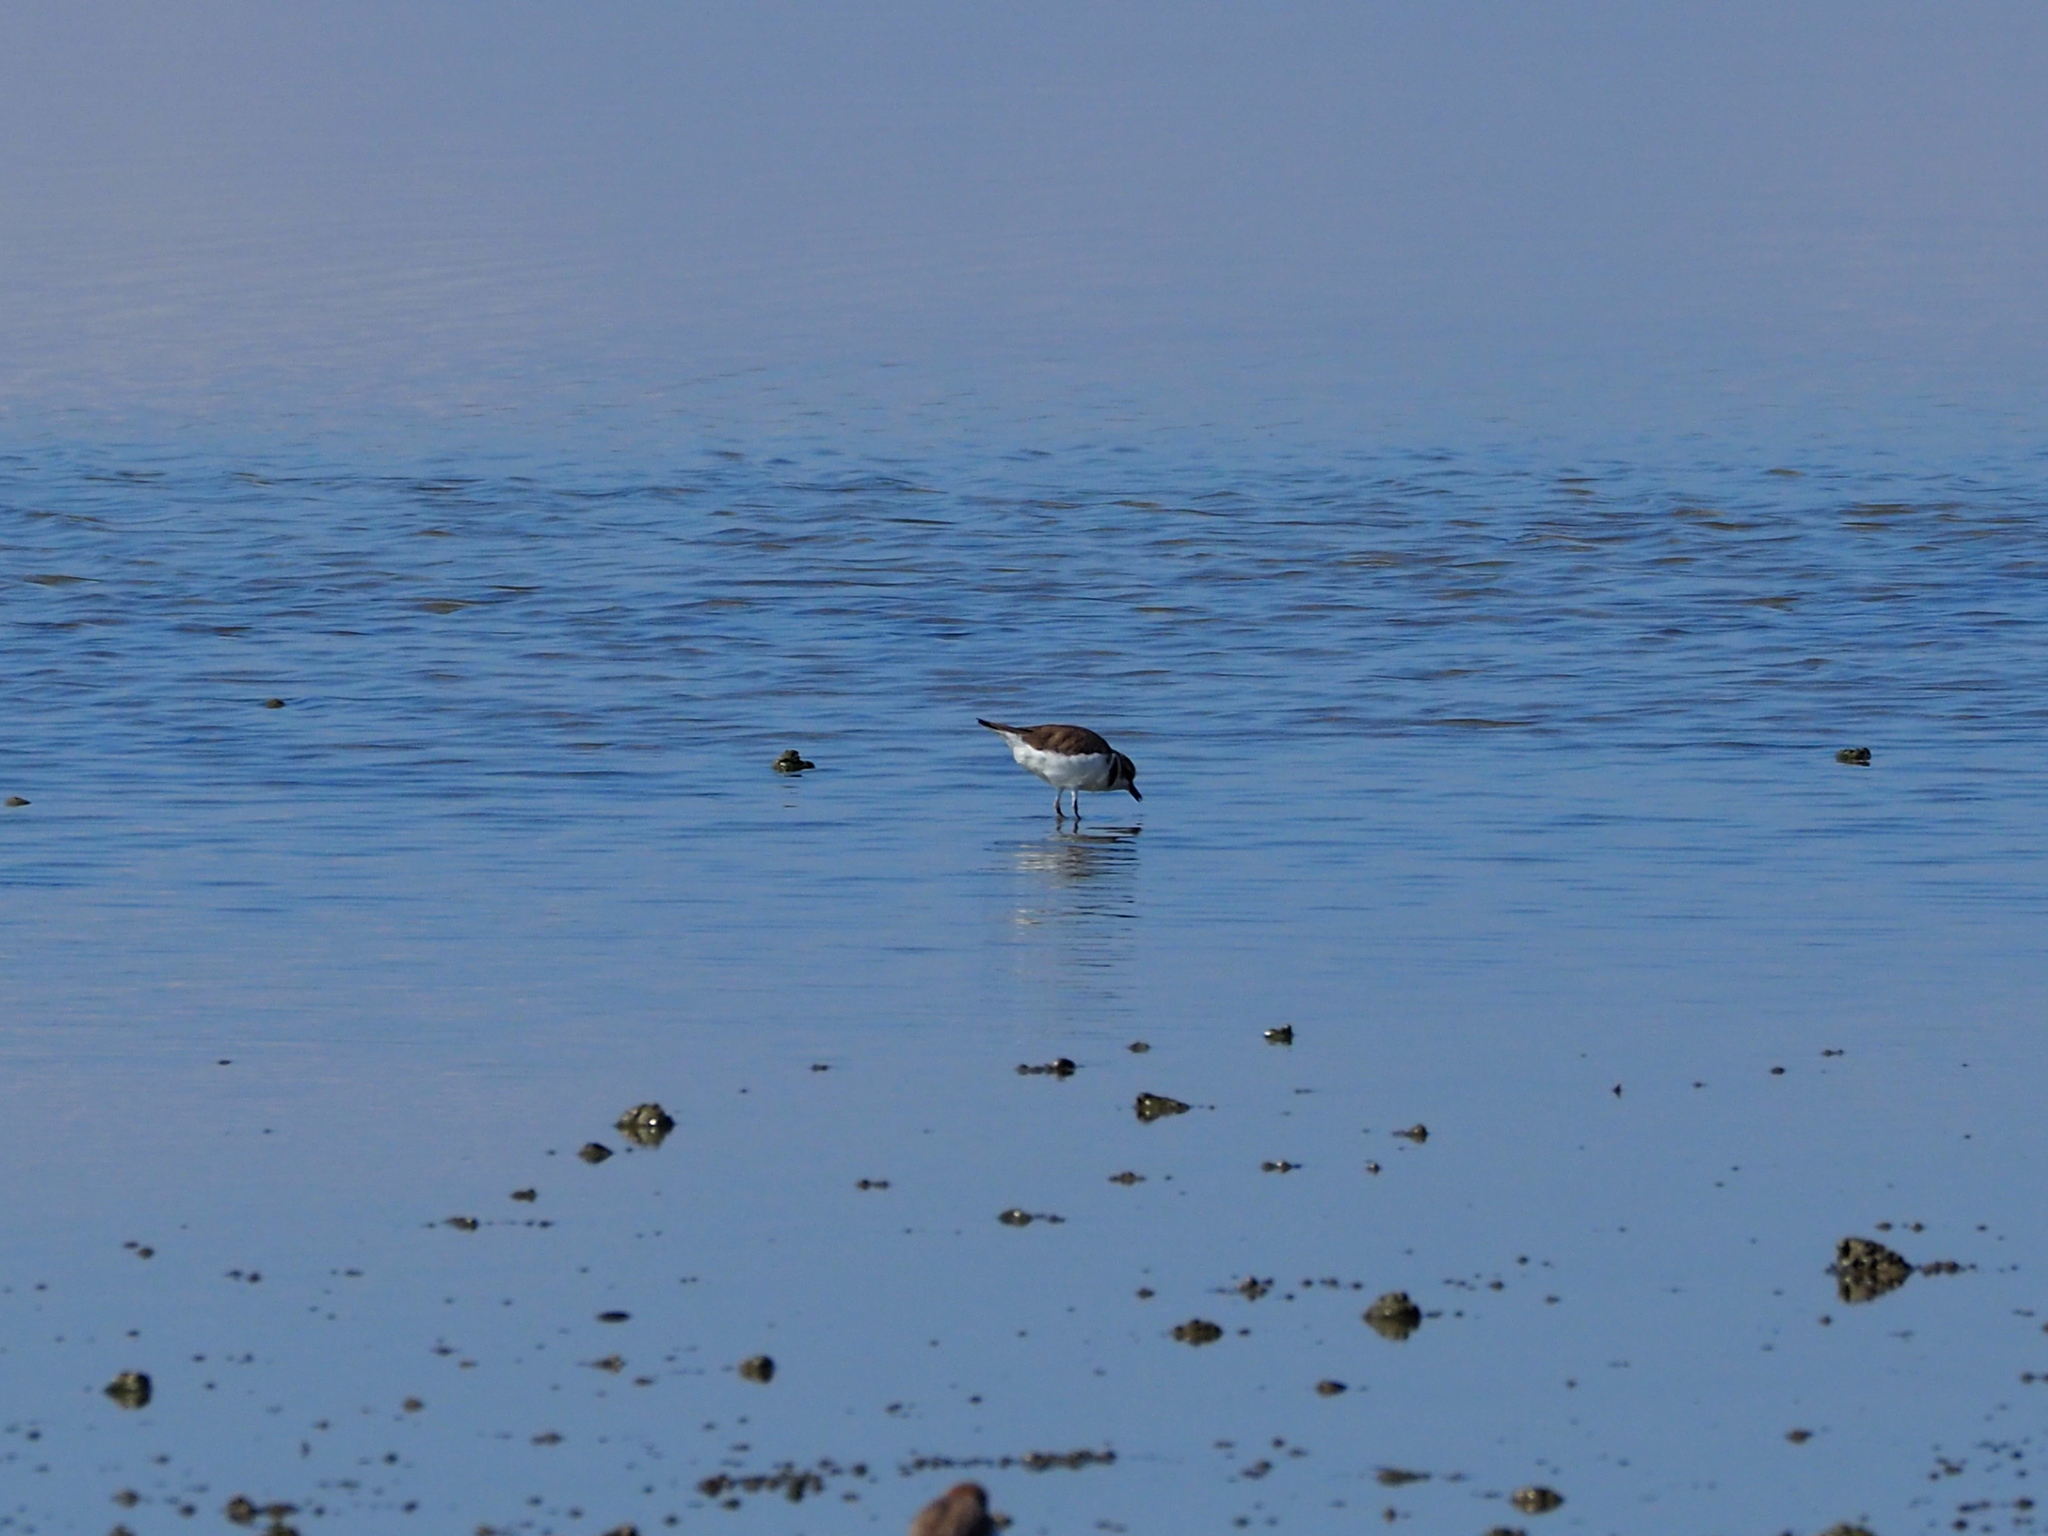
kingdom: Animalia
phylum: Chordata
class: Aves
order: Charadriiformes
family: Charadriidae
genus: Charadrius
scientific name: Charadrius alexandrinus
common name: Kentish plover
